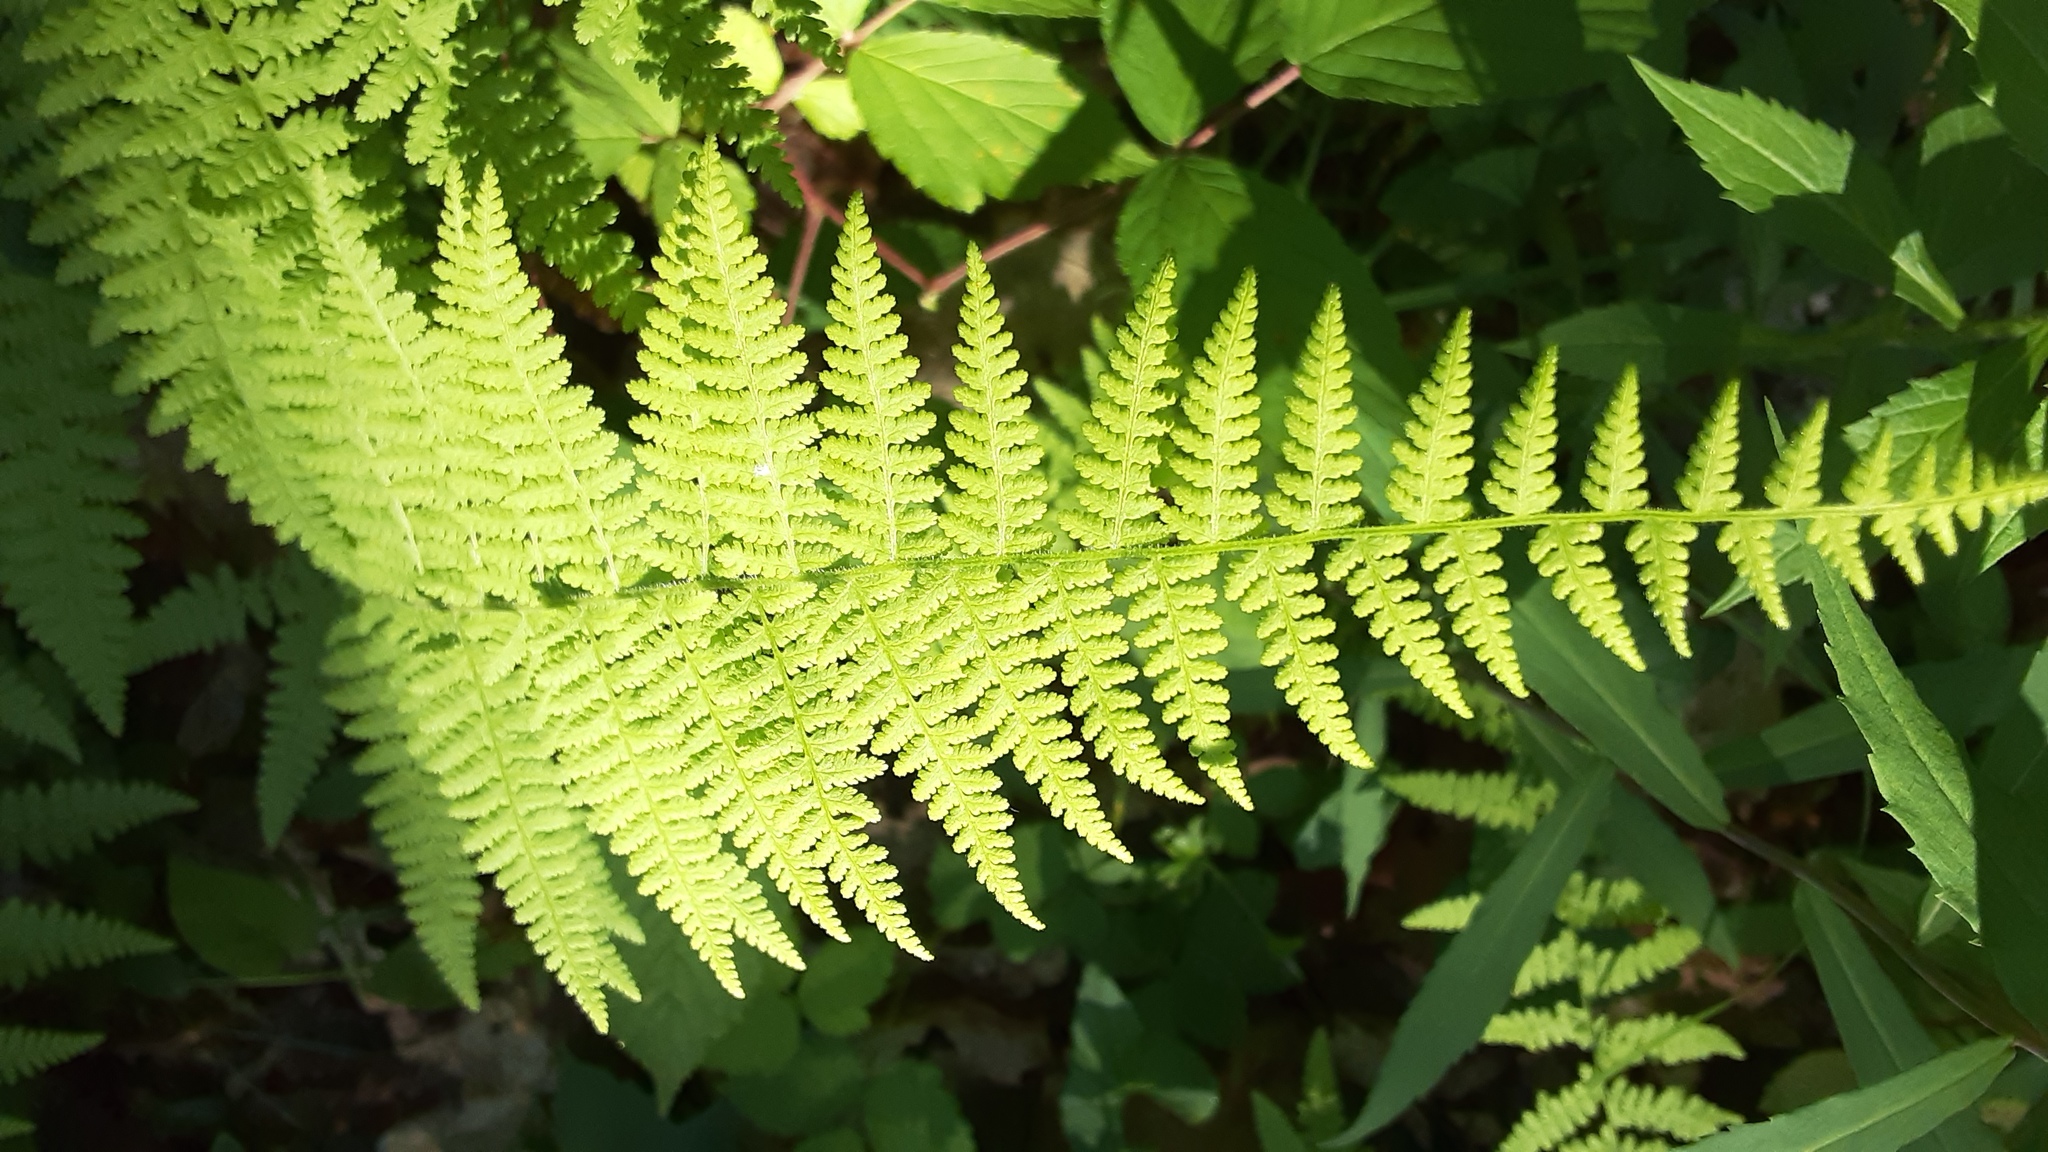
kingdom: Plantae
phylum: Tracheophyta
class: Polypodiopsida
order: Polypodiales
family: Dennstaedtiaceae
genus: Sitobolium
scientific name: Sitobolium punctilobum
